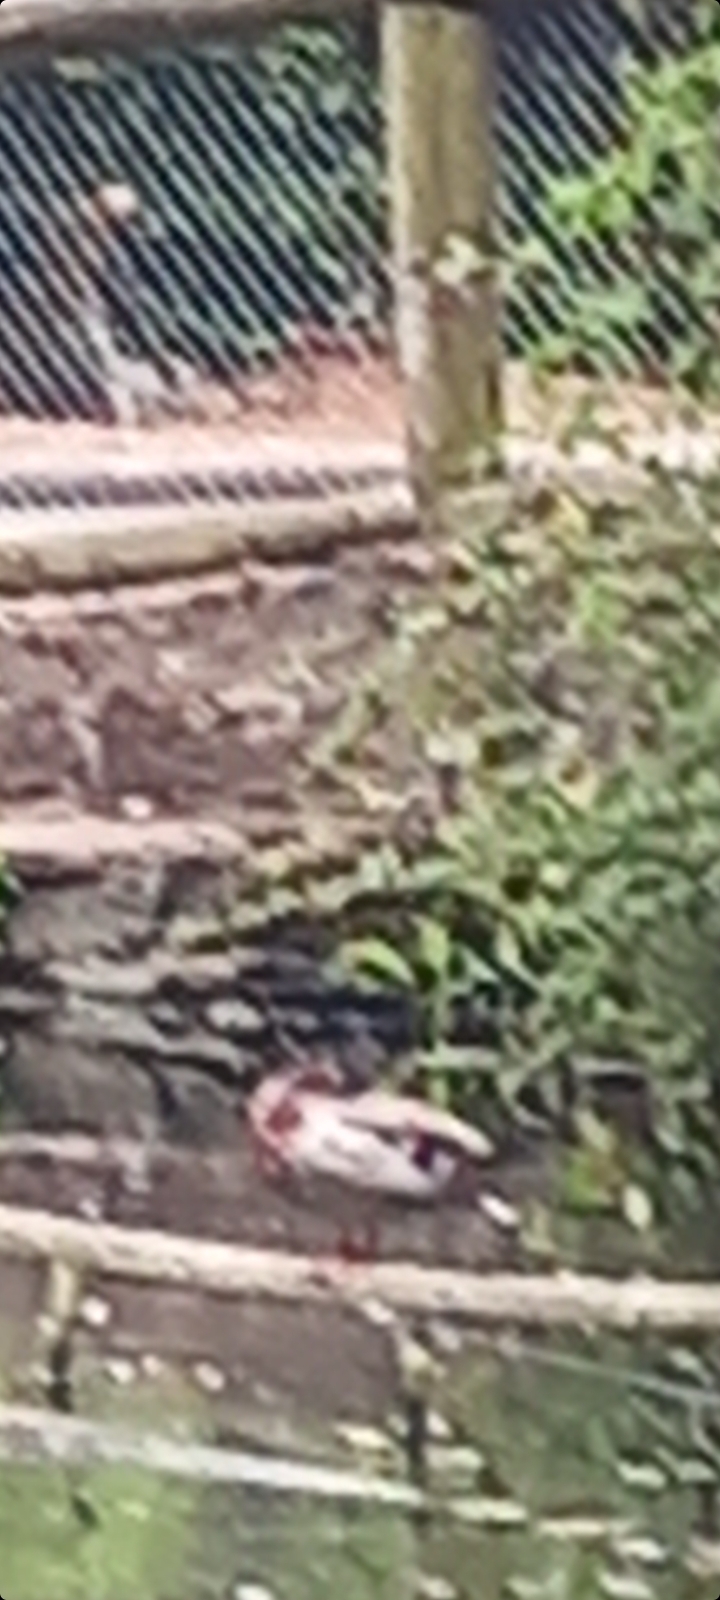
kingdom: Animalia
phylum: Chordata
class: Aves
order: Anseriformes
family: Anatidae
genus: Anas
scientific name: Anas platyrhynchos
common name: Mallard
